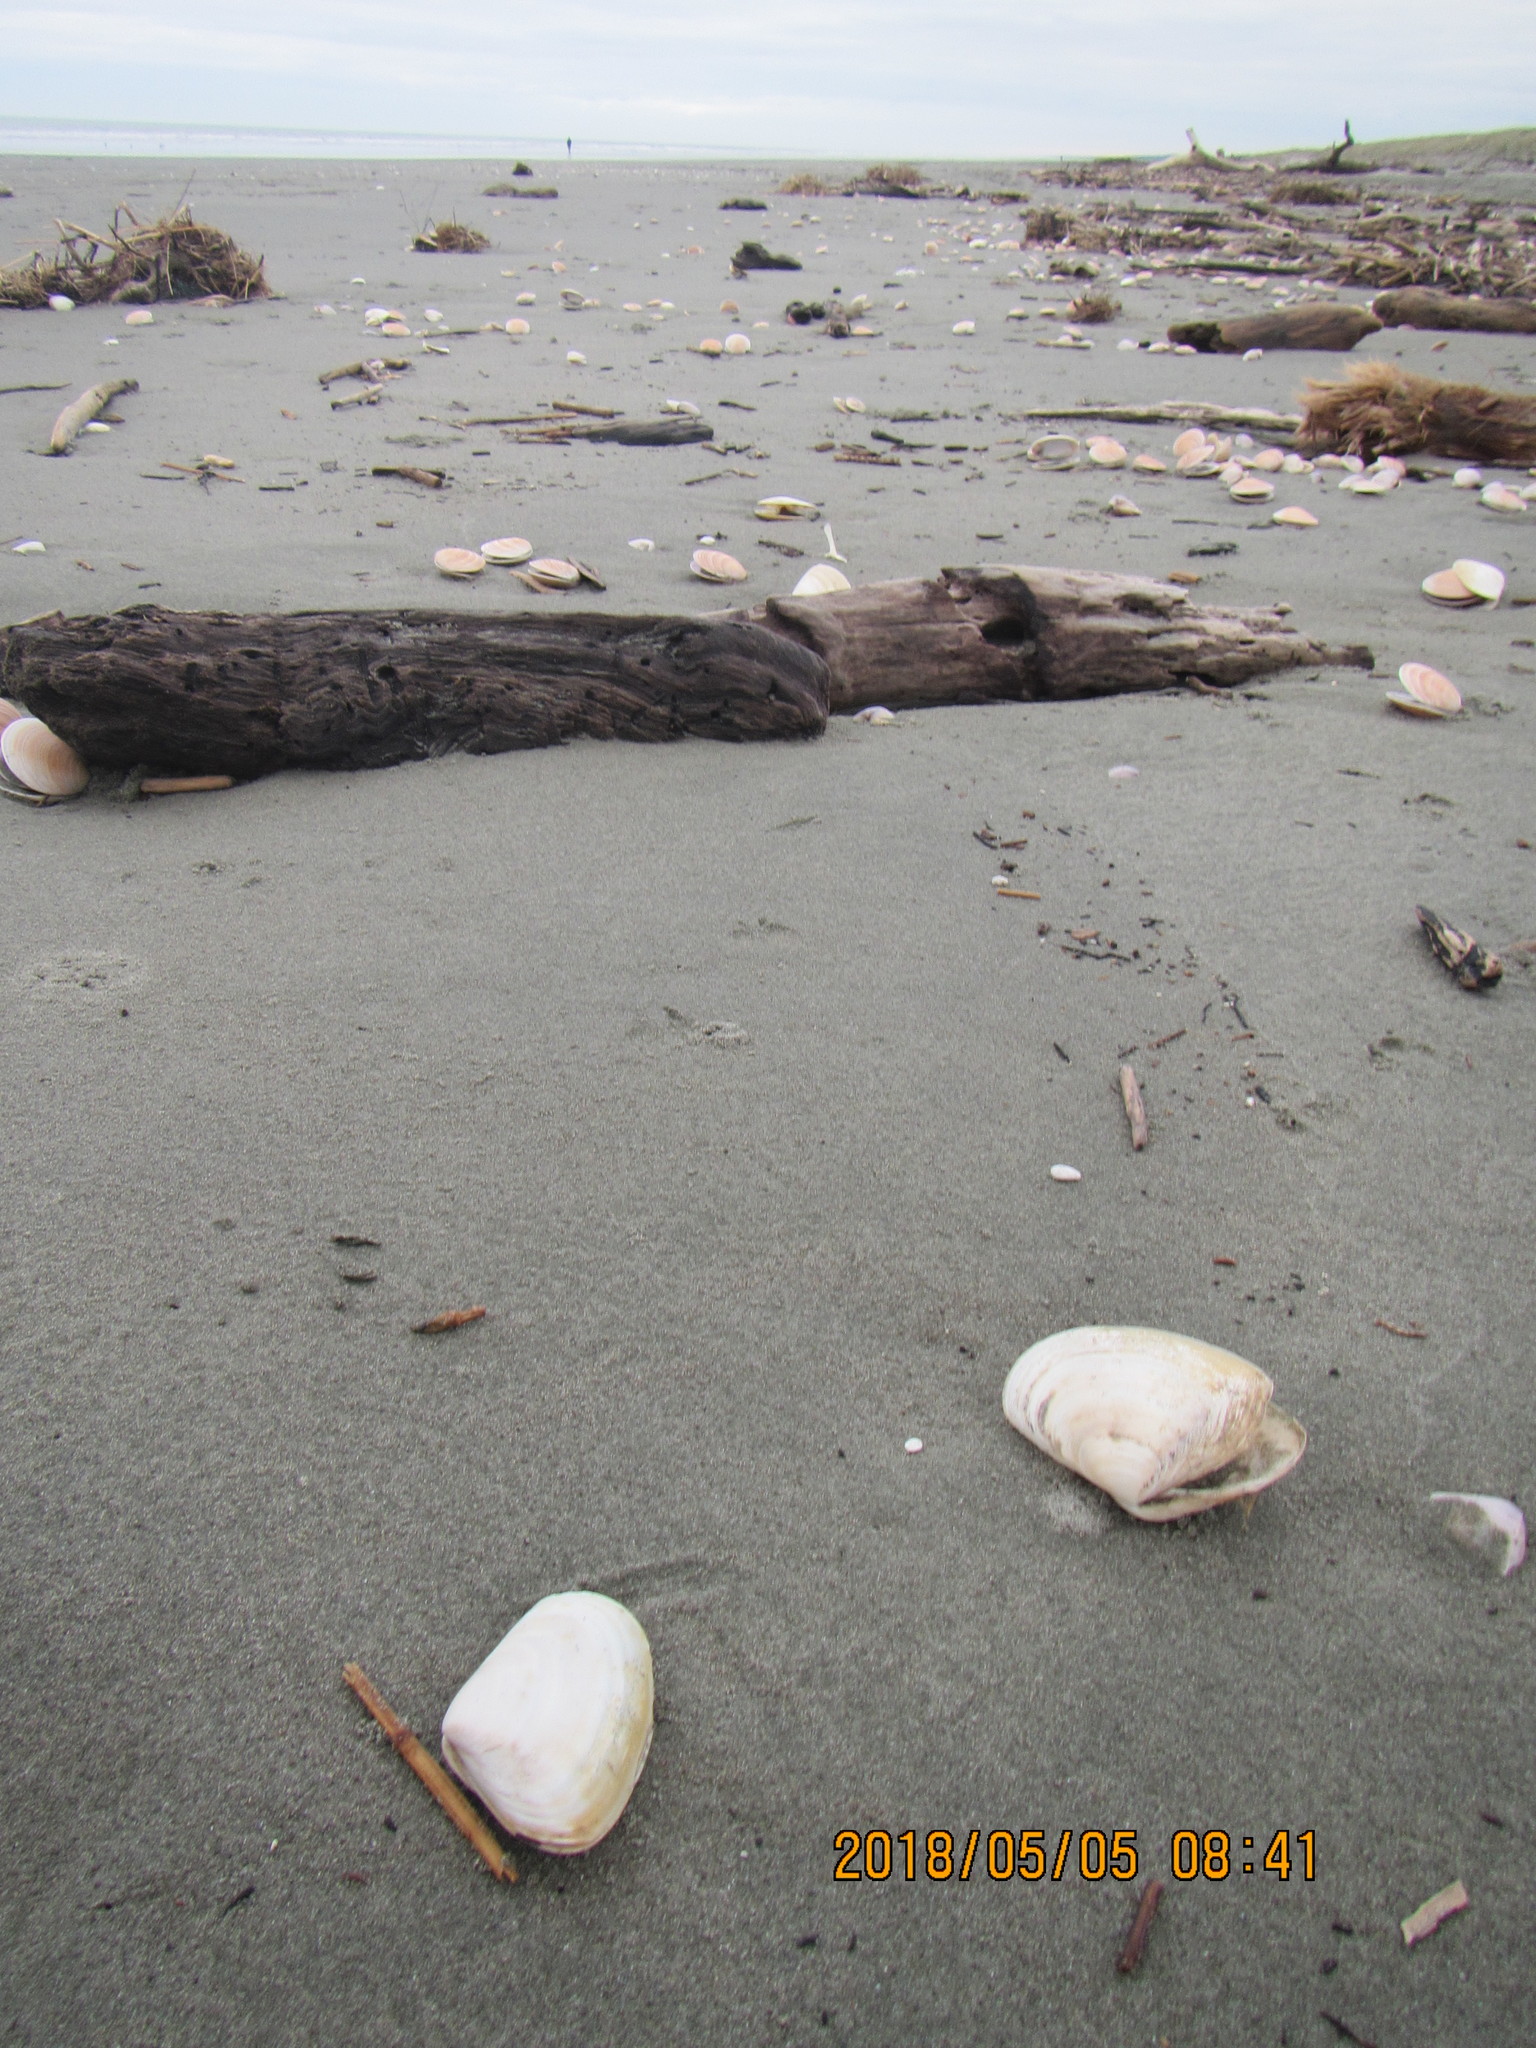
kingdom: Animalia
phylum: Mollusca
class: Bivalvia
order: Venerida
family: Mesodesmatidae
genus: Paphies
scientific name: Paphies subtriangulata
